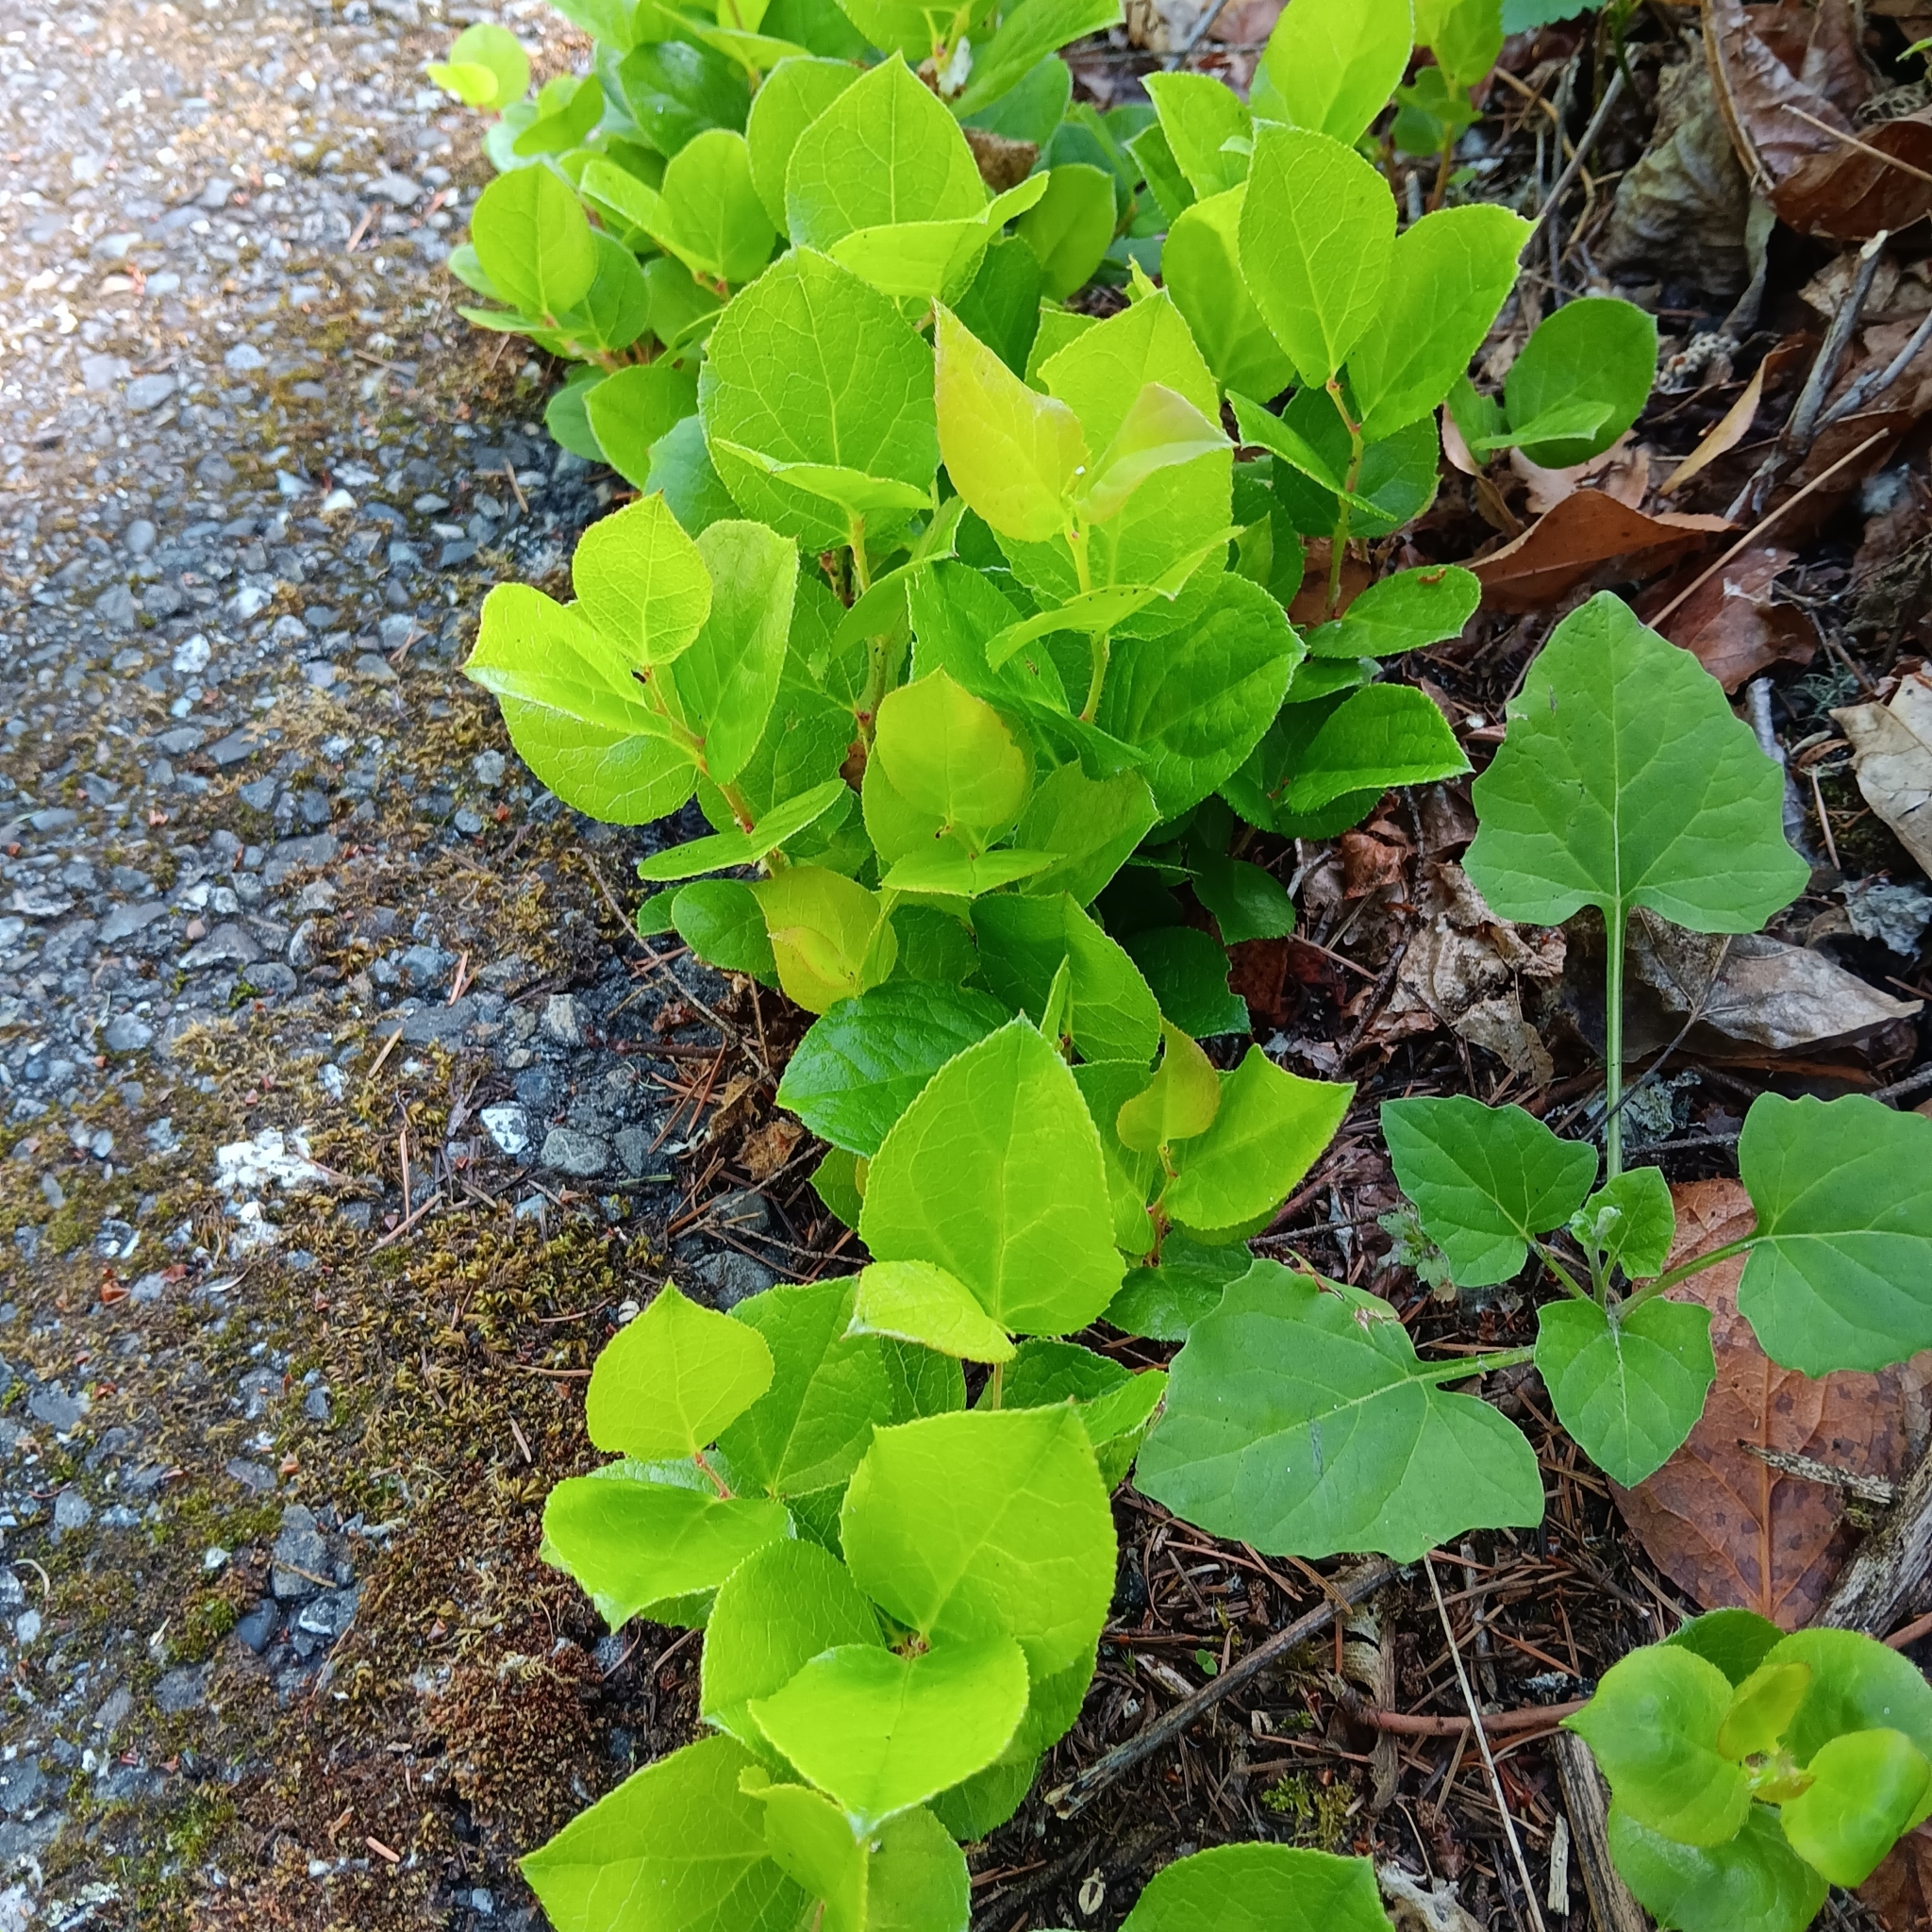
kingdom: Plantae
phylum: Tracheophyta
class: Magnoliopsida
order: Ericales
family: Ericaceae
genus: Gaultheria
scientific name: Gaultheria shallon
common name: Shallon
